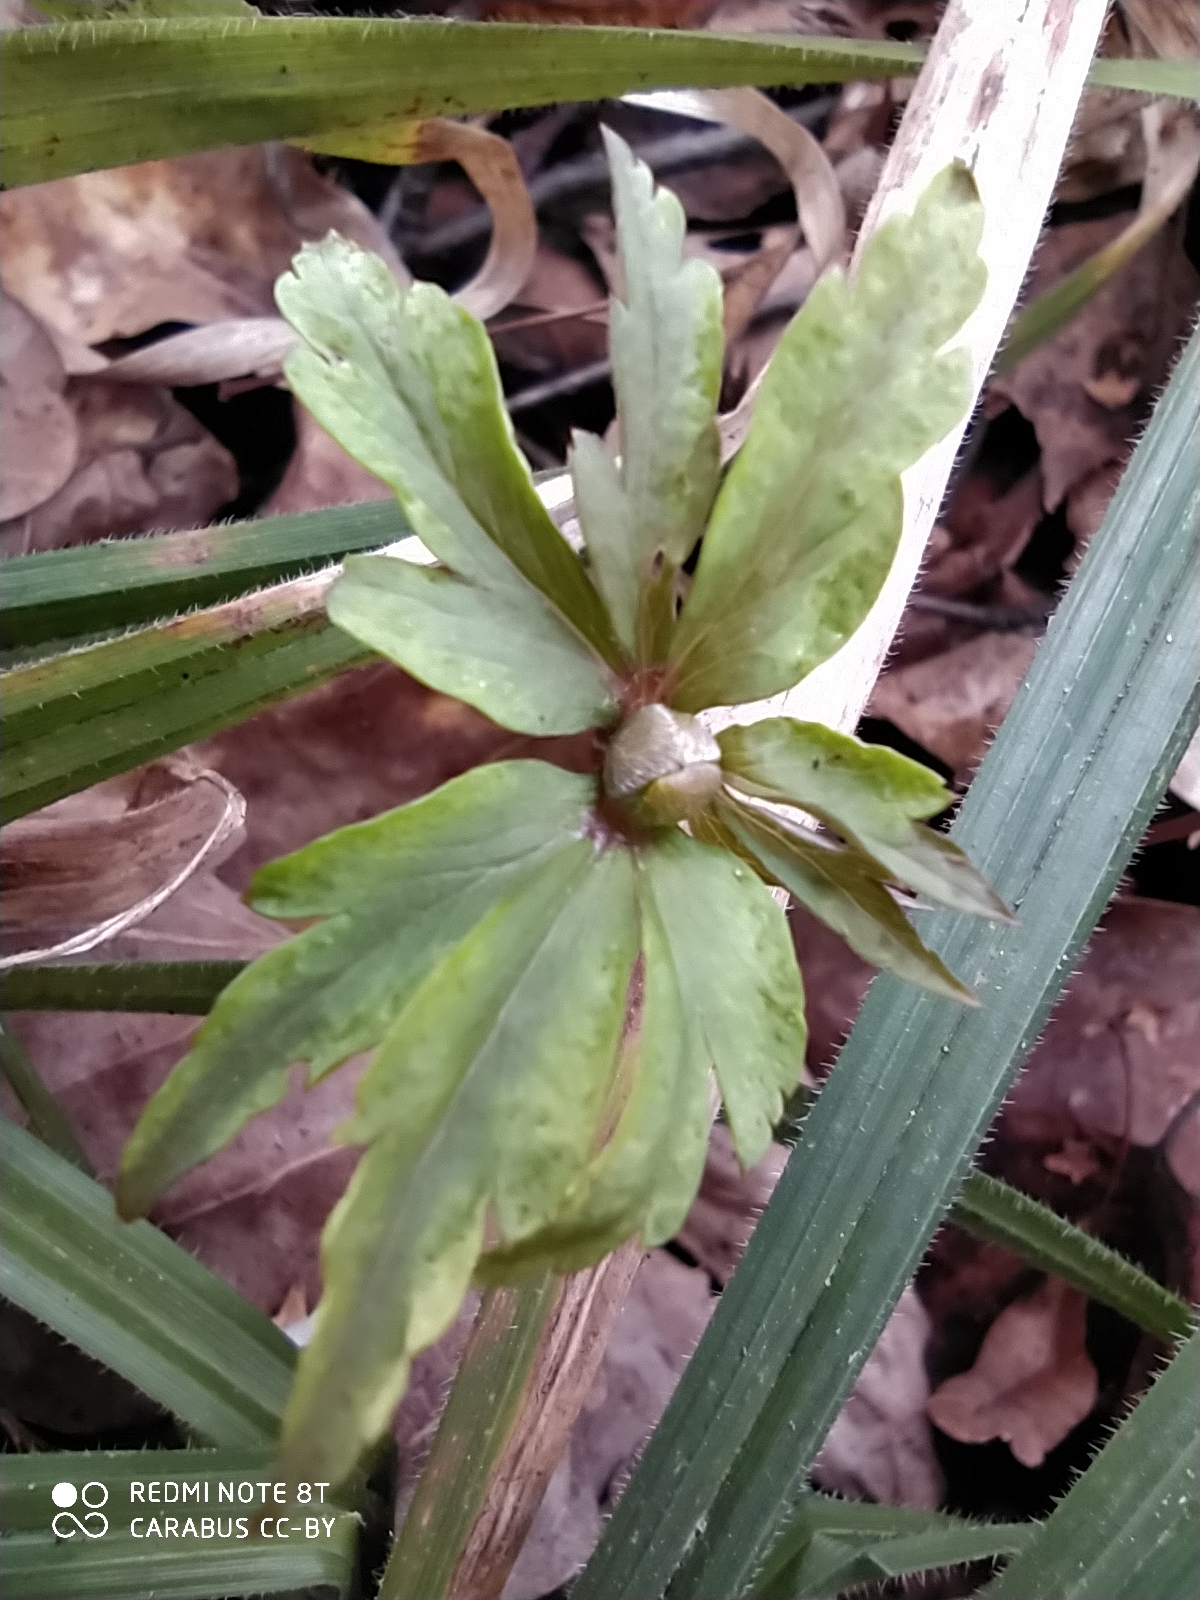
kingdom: Plantae
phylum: Tracheophyta
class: Magnoliopsida
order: Ranunculales
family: Ranunculaceae
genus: Anemone
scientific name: Anemone ranunculoides
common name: Yellow anemone
